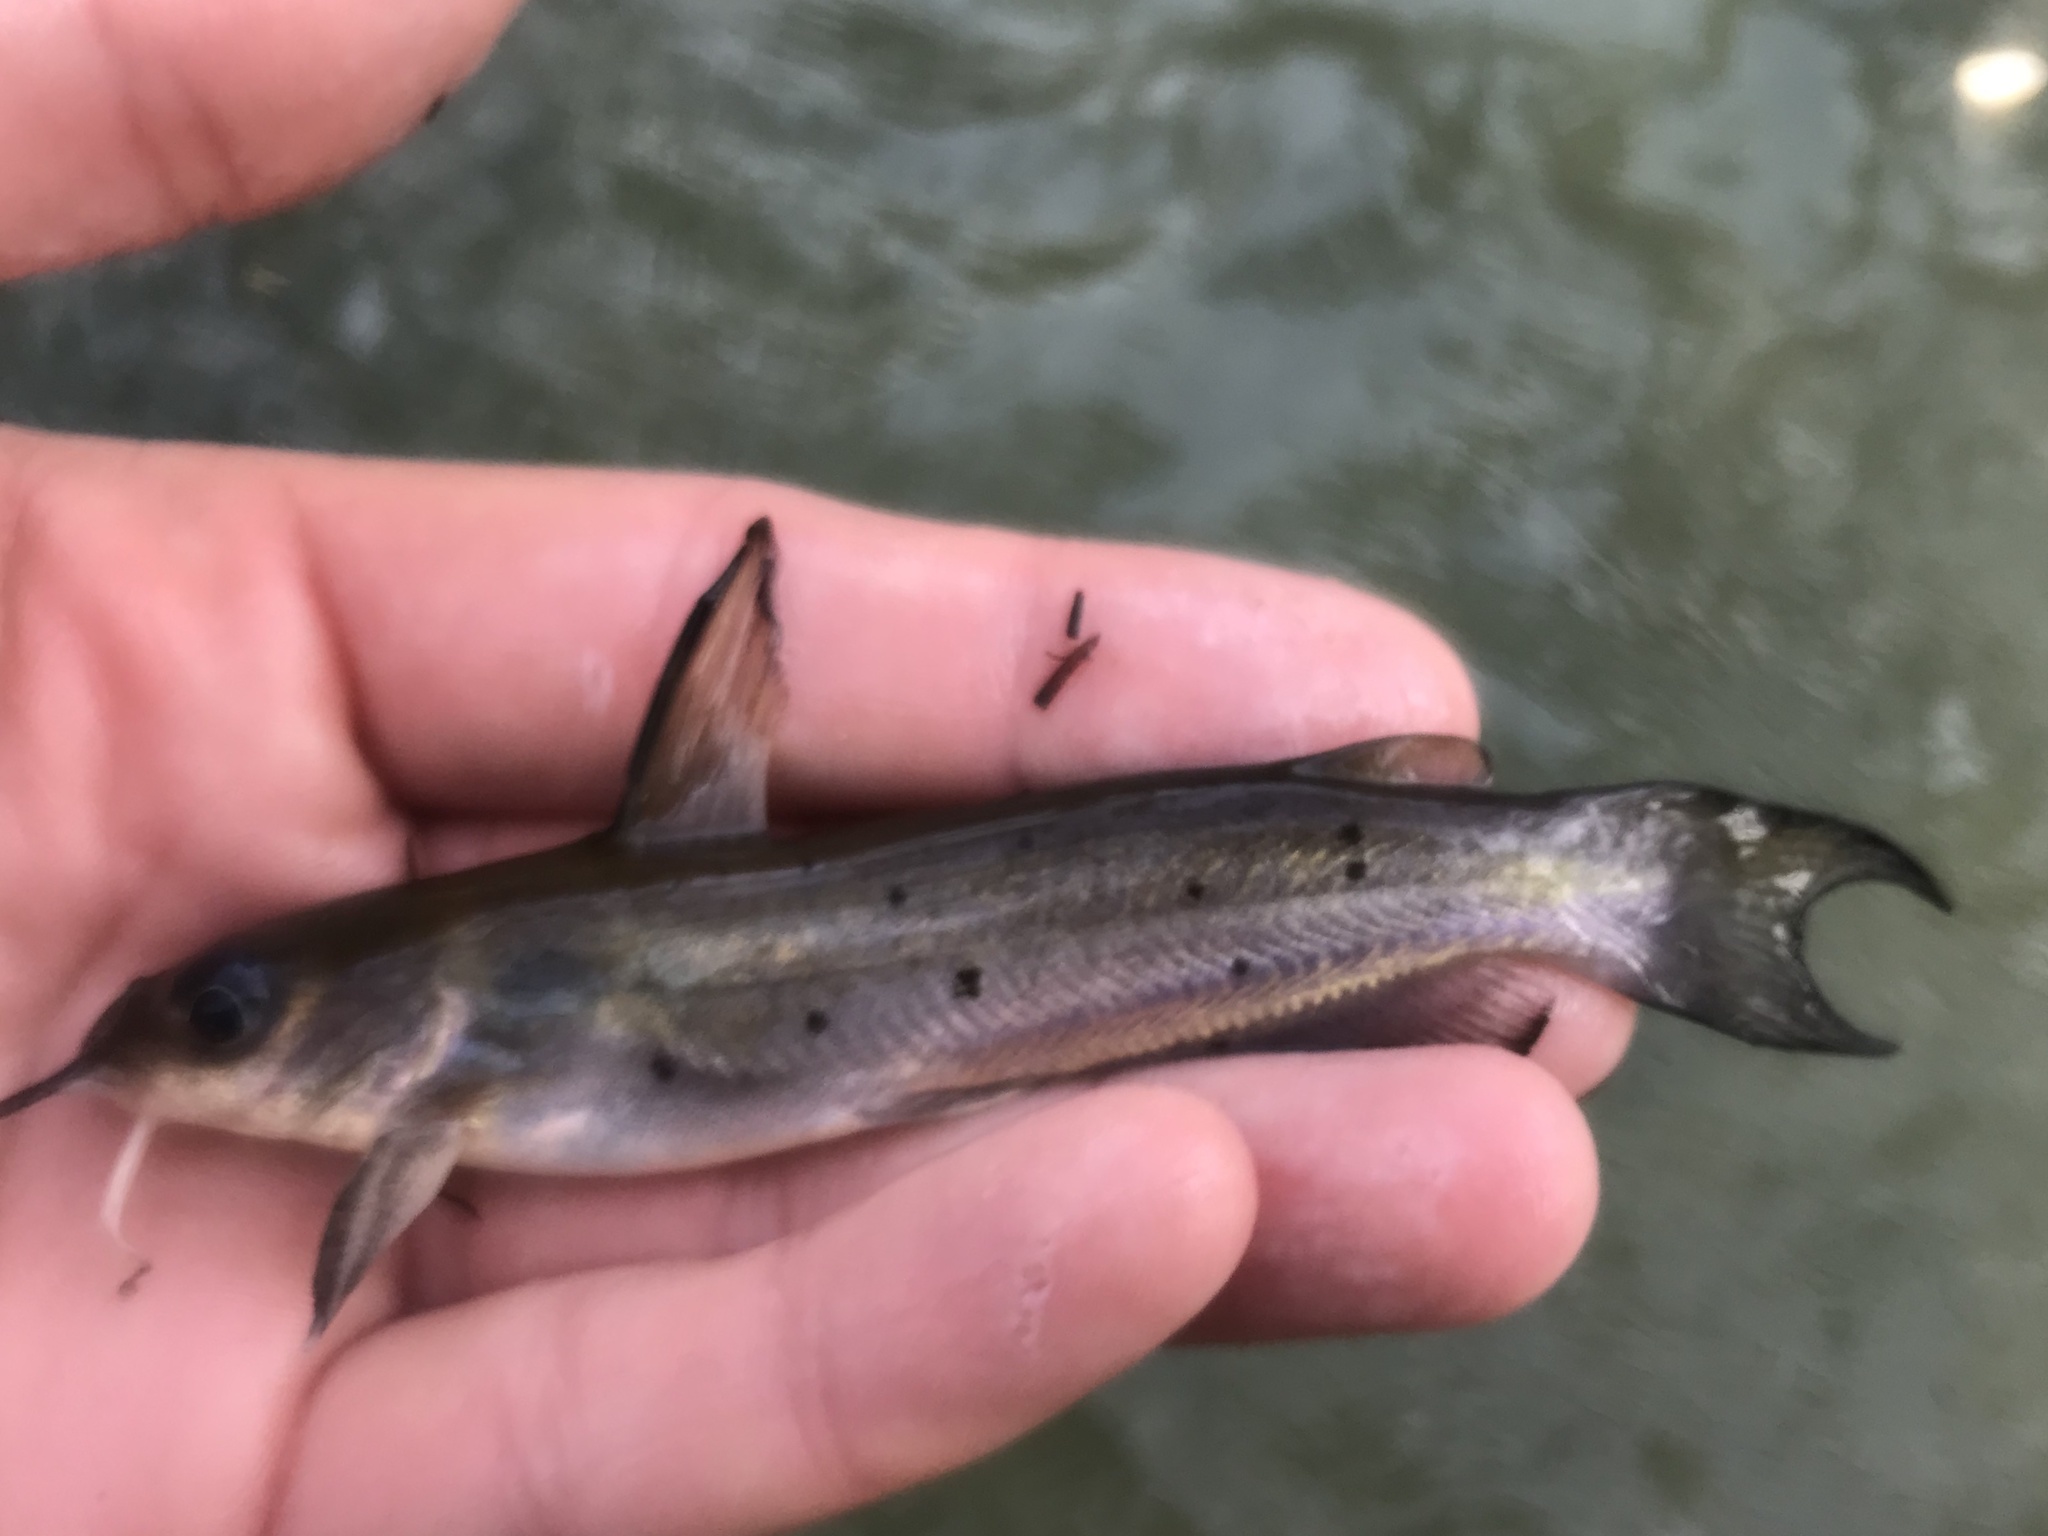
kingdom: Animalia
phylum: Chordata
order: Siluriformes
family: Ictaluridae
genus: Ictalurus
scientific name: Ictalurus punctatus
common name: Channel catfish
